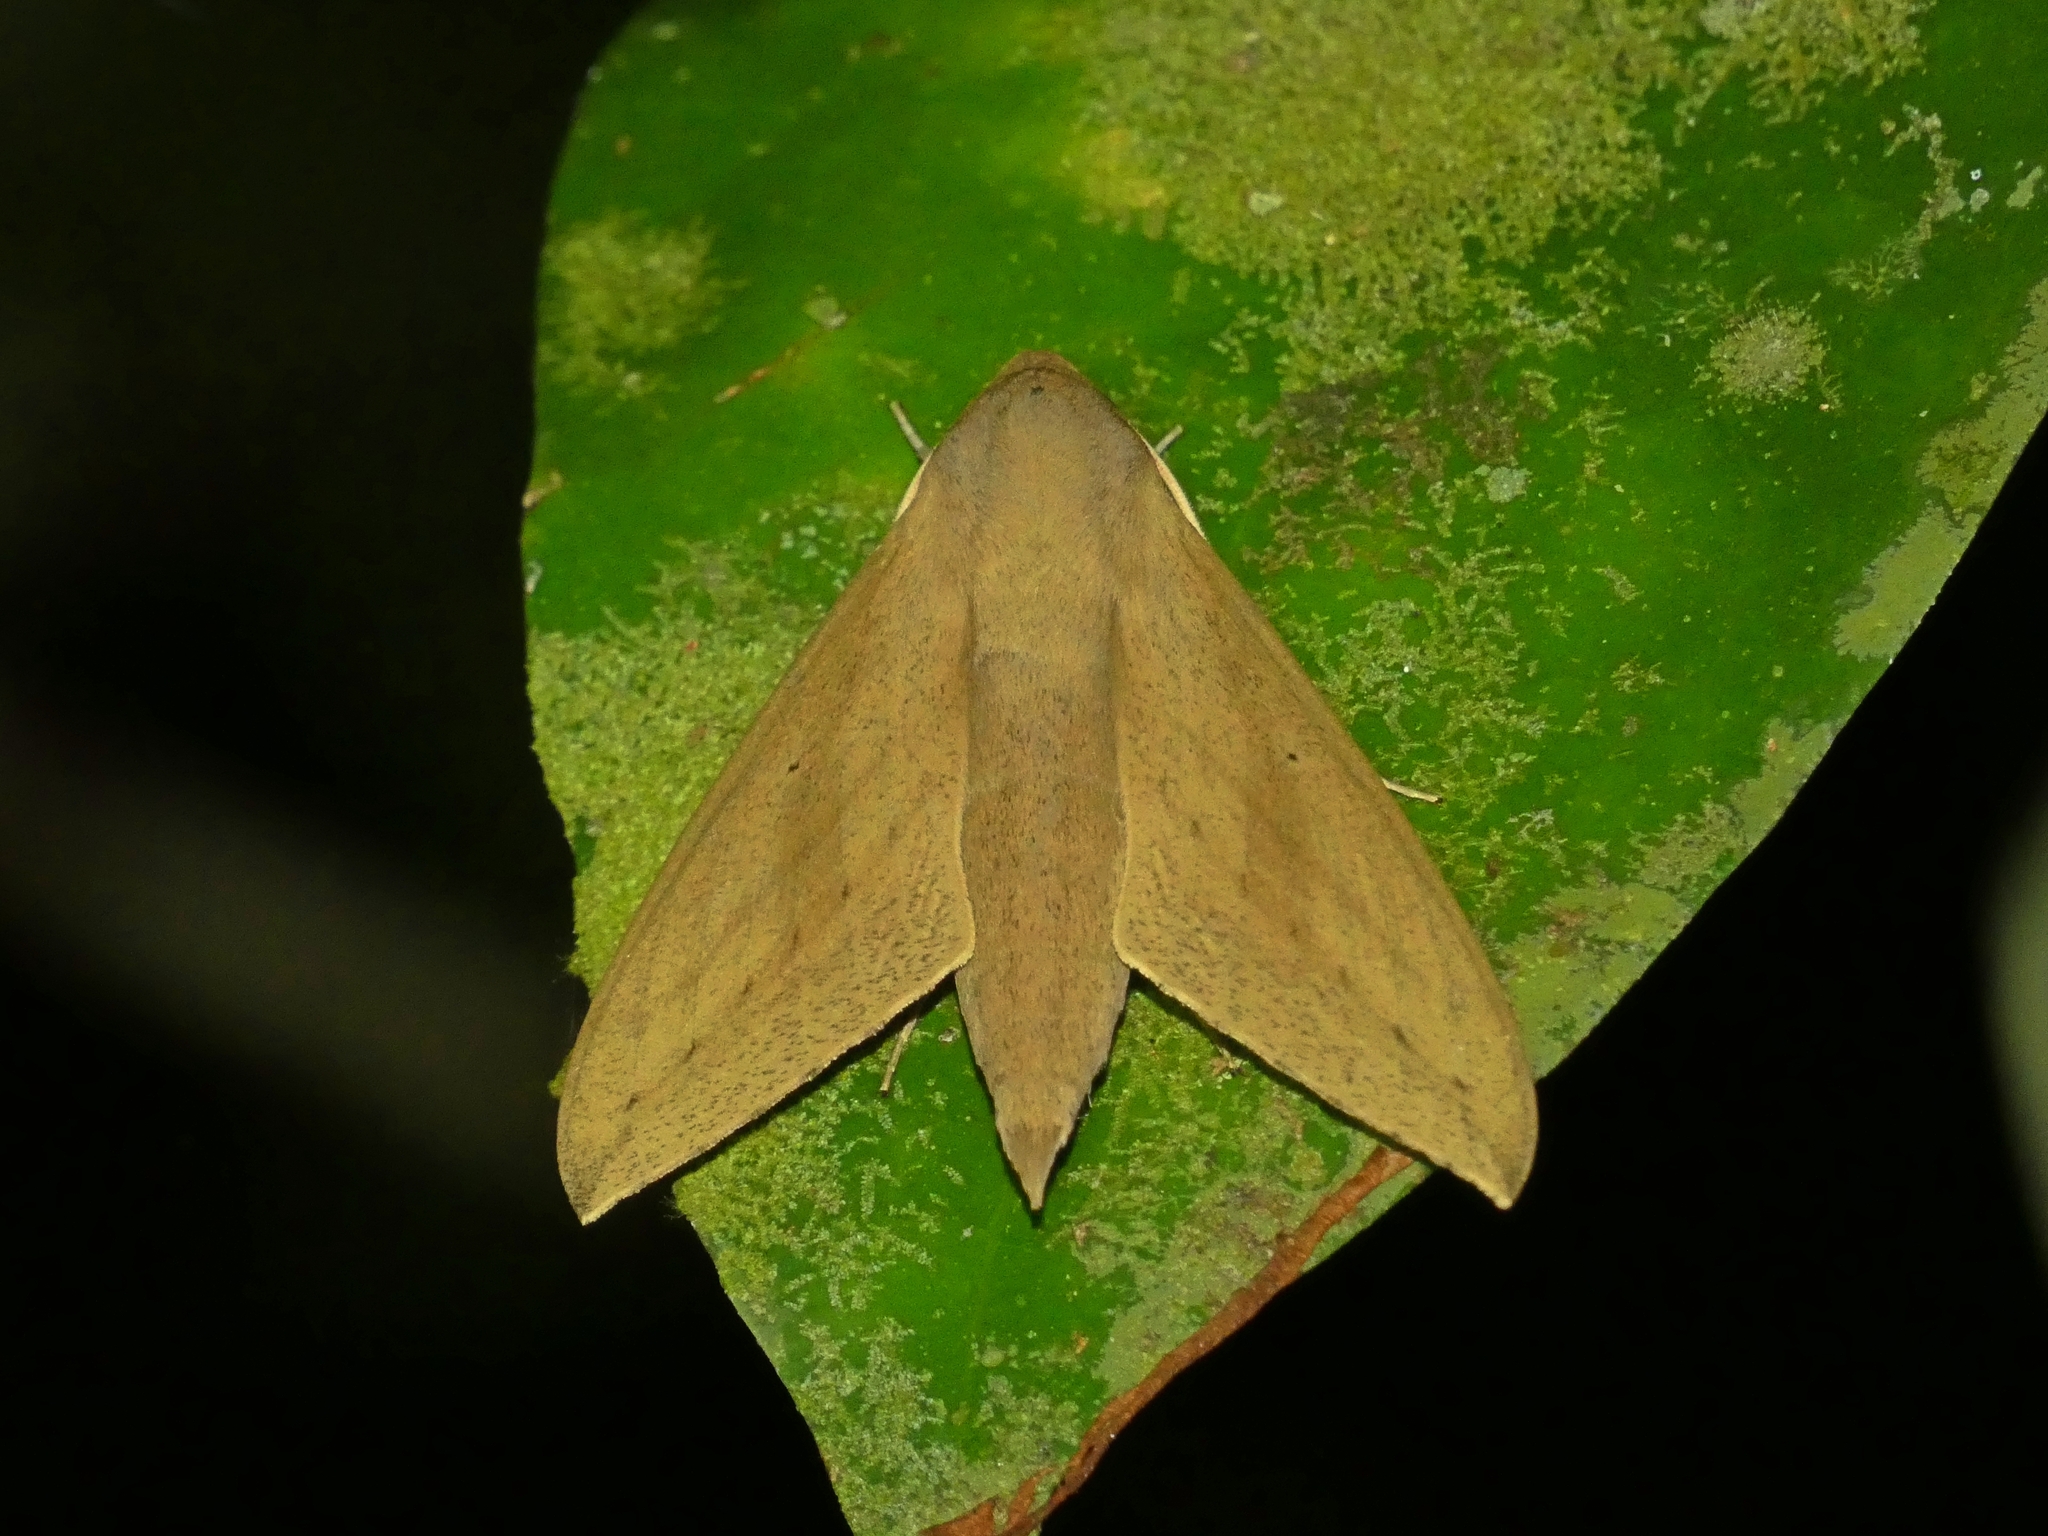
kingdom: Animalia
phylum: Arthropoda
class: Insecta
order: Lepidoptera
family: Sphingidae
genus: Theretra
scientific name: Theretra tryoni
